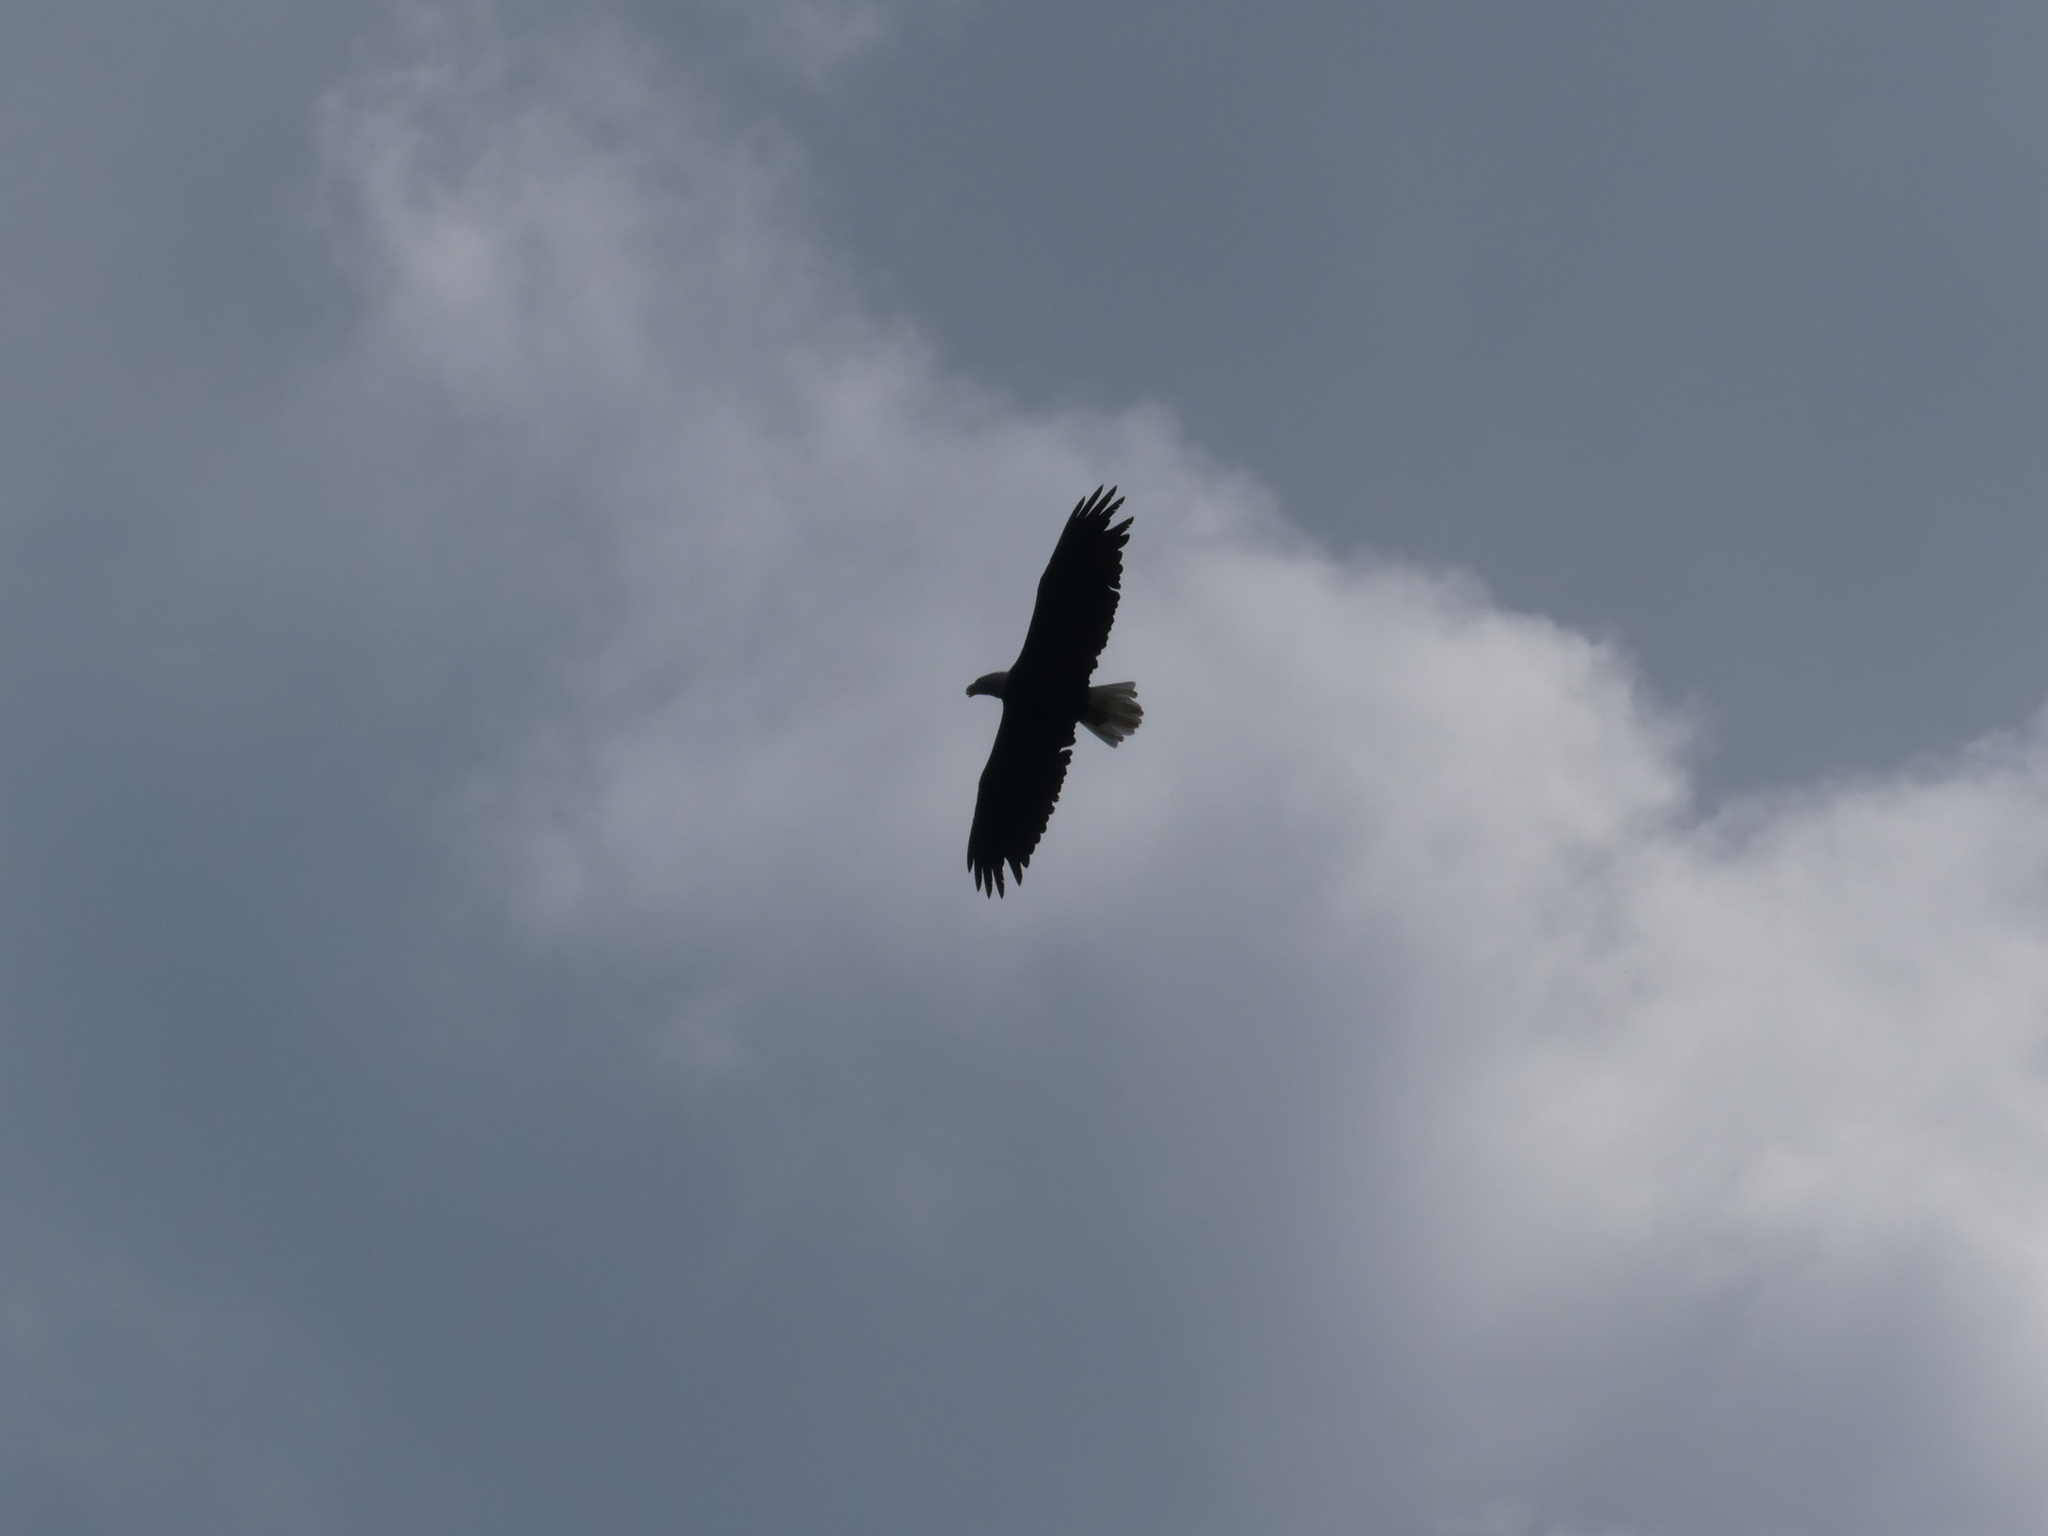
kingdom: Animalia
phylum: Chordata
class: Aves
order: Accipitriformes
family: Accipitridae
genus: Haliaeetus
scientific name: Haliaeetus leucocephalus
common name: Bald eagle
